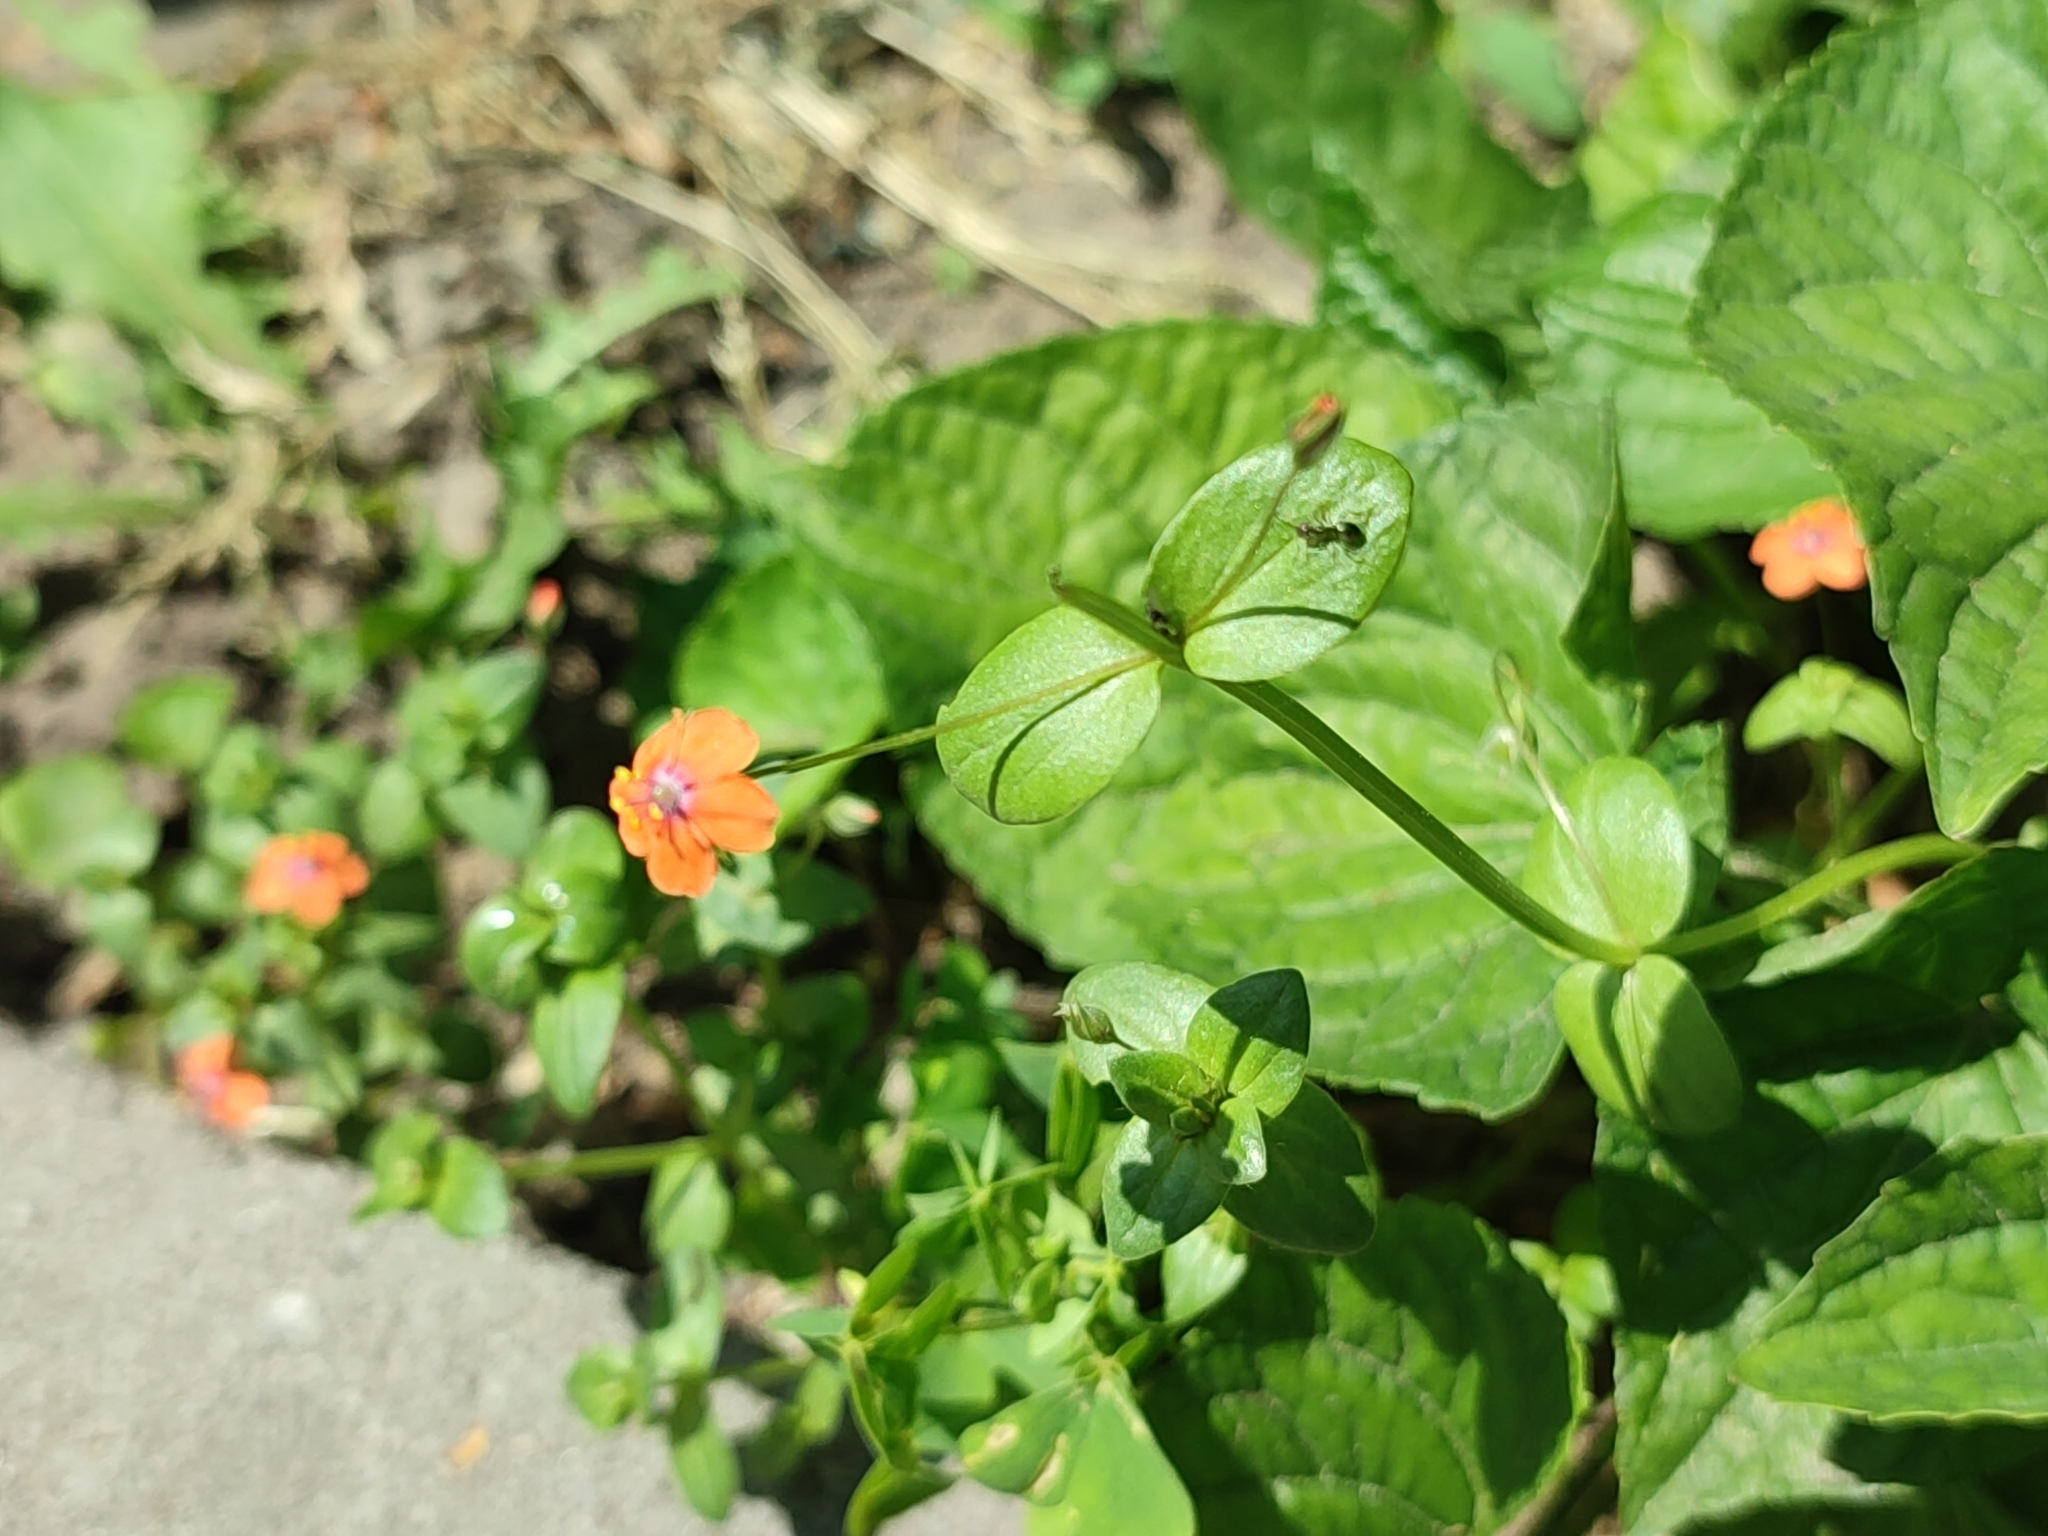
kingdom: Plantae
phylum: Tracheophyta
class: Magnoliopsida
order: Ericales
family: Primulaceae
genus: Lysimachia
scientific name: Lysimachia arvensis
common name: Scarlet pimpernel
